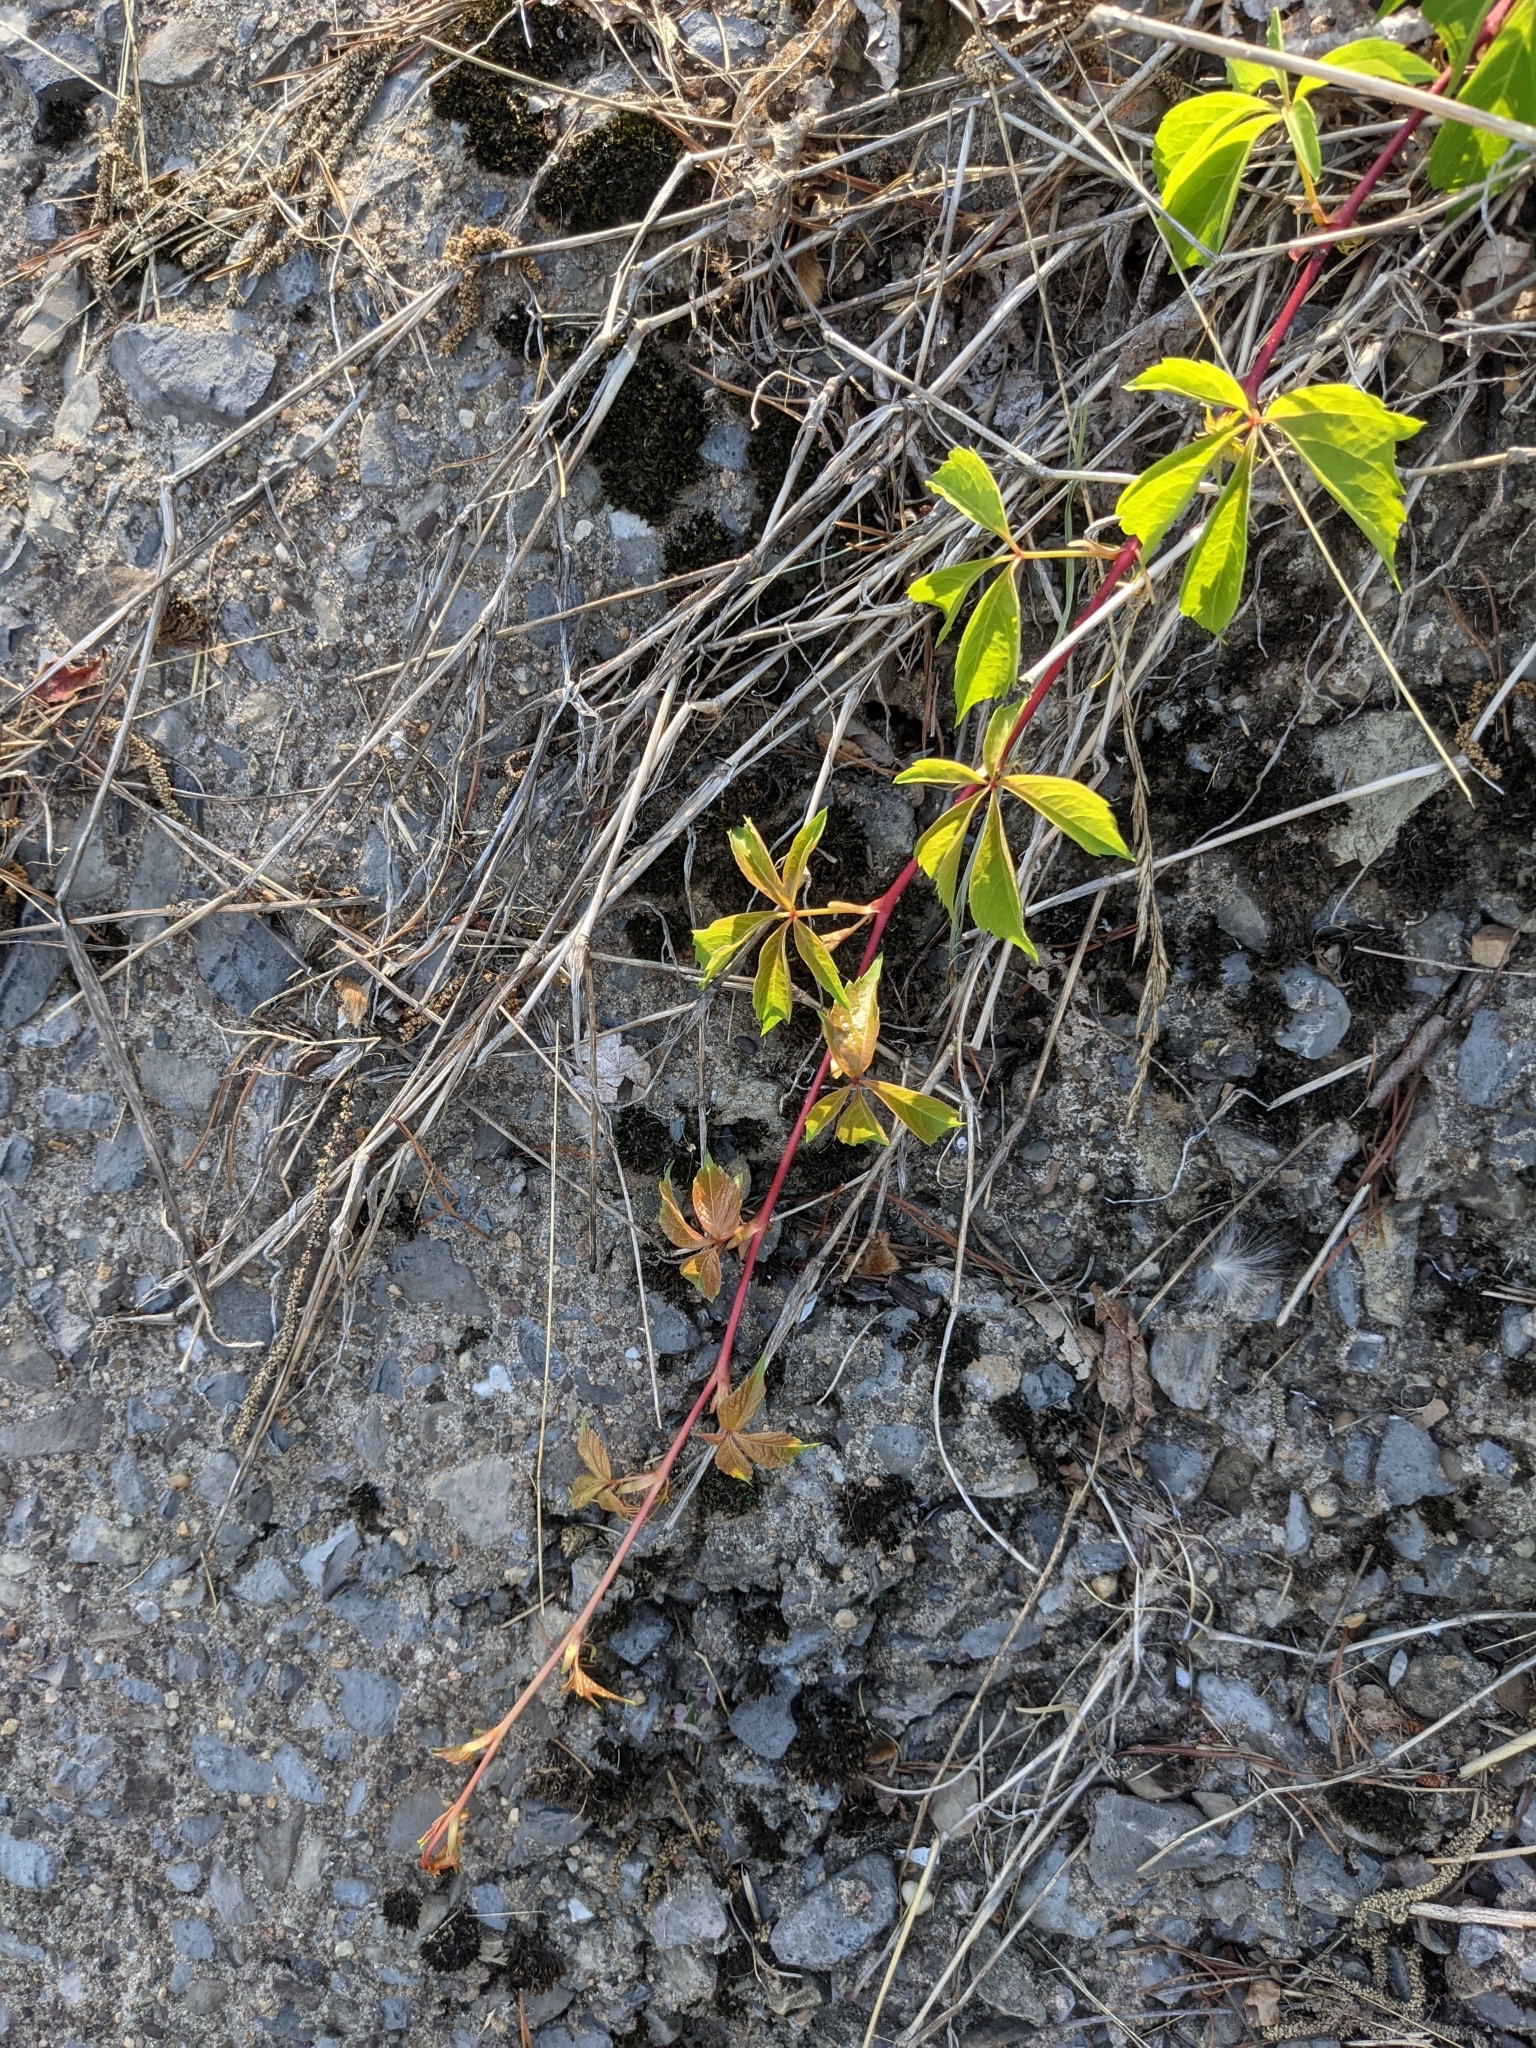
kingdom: Plantae
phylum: Tracheophyta
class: Magnoliopsida
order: Vitales
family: Vitaceae
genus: Parthenocissus
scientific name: Parthenocissus quinquefolia
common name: Virginia-creeper
